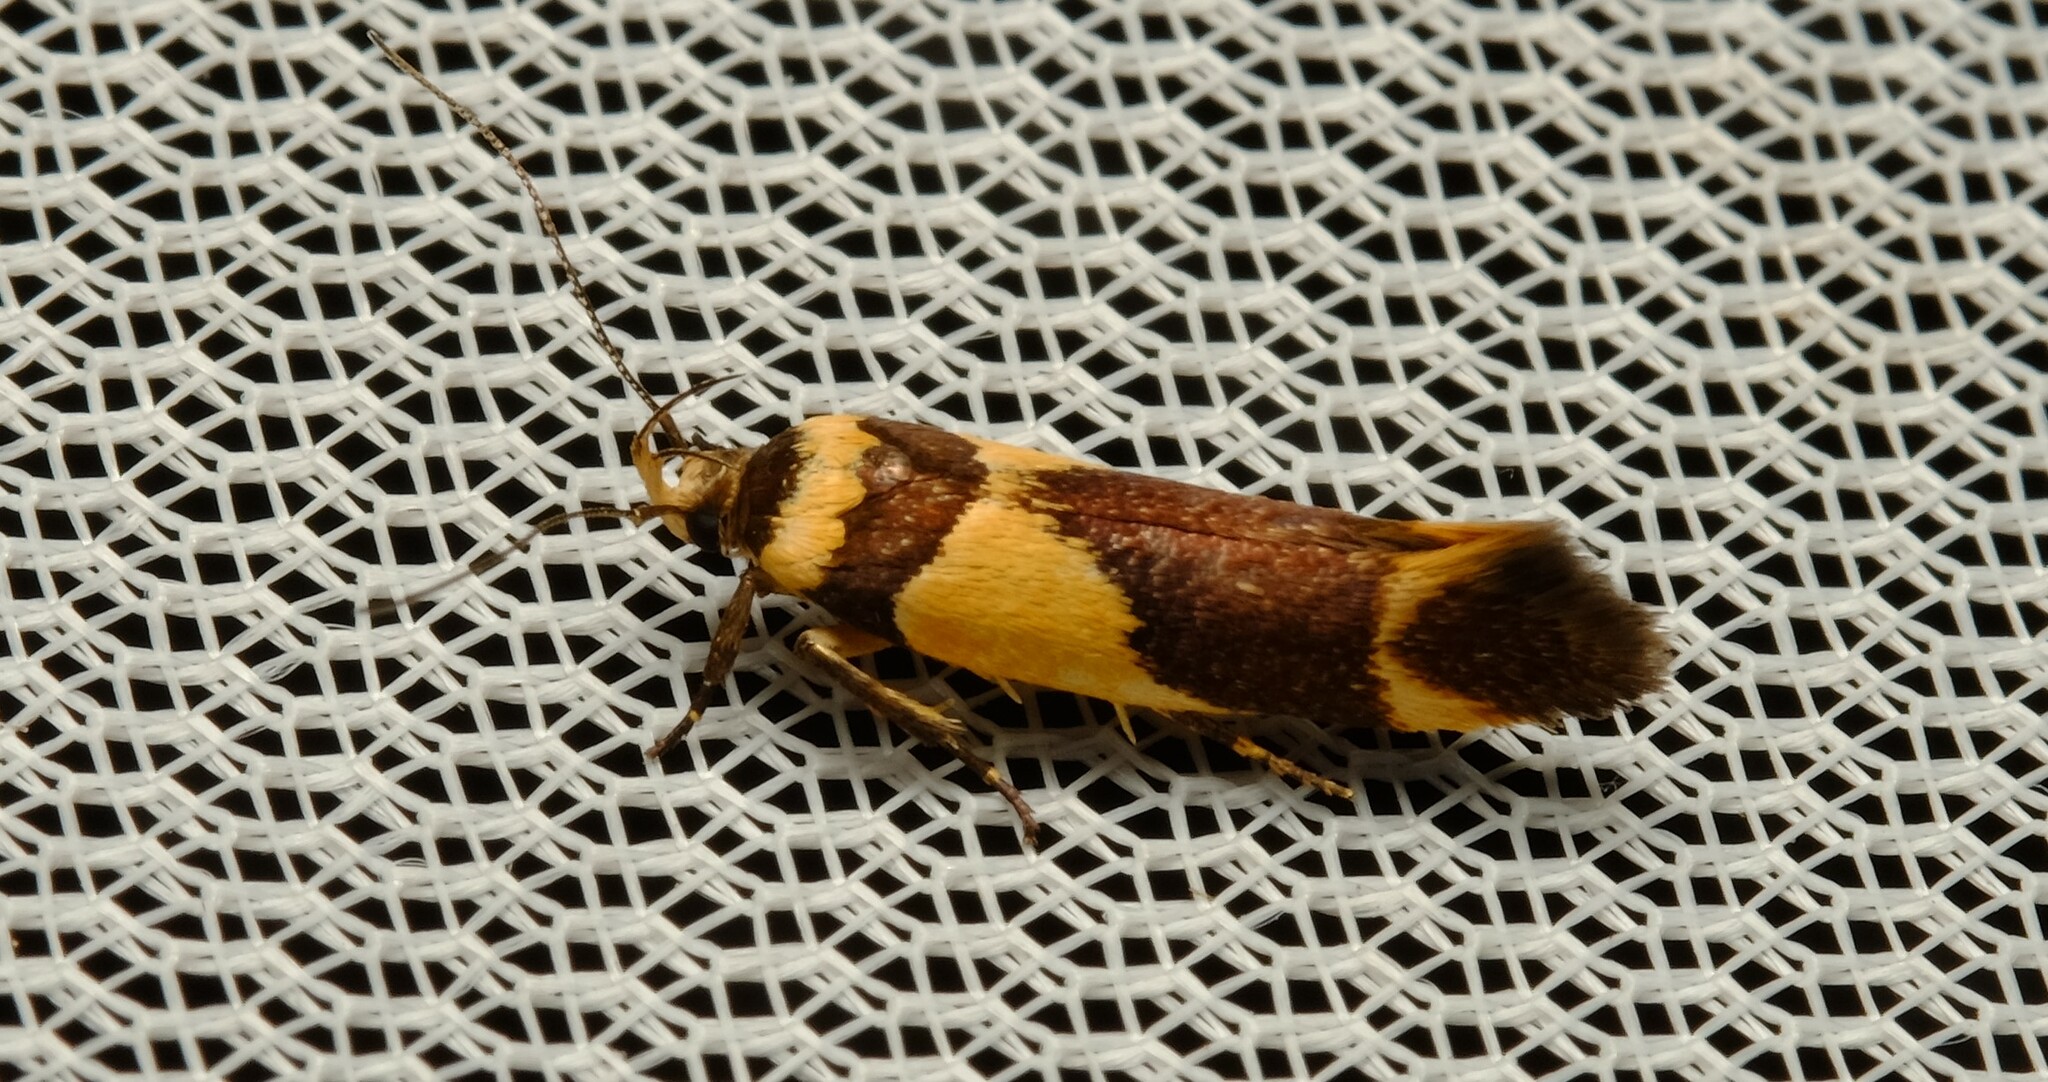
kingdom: Animalia
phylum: Arthropoda
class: Insecta
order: Lepidoptera
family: Cosmopterigidae
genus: Macrobathra
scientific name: Macrobathra chrysotoxa
